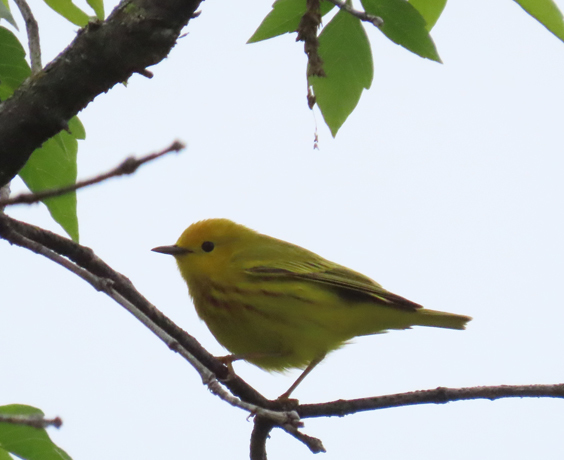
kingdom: Animalia
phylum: Chordata
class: Aves
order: Passeriformes
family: Parulidae
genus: Setophaga
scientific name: Setophaga petechia
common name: Yellow warbler
